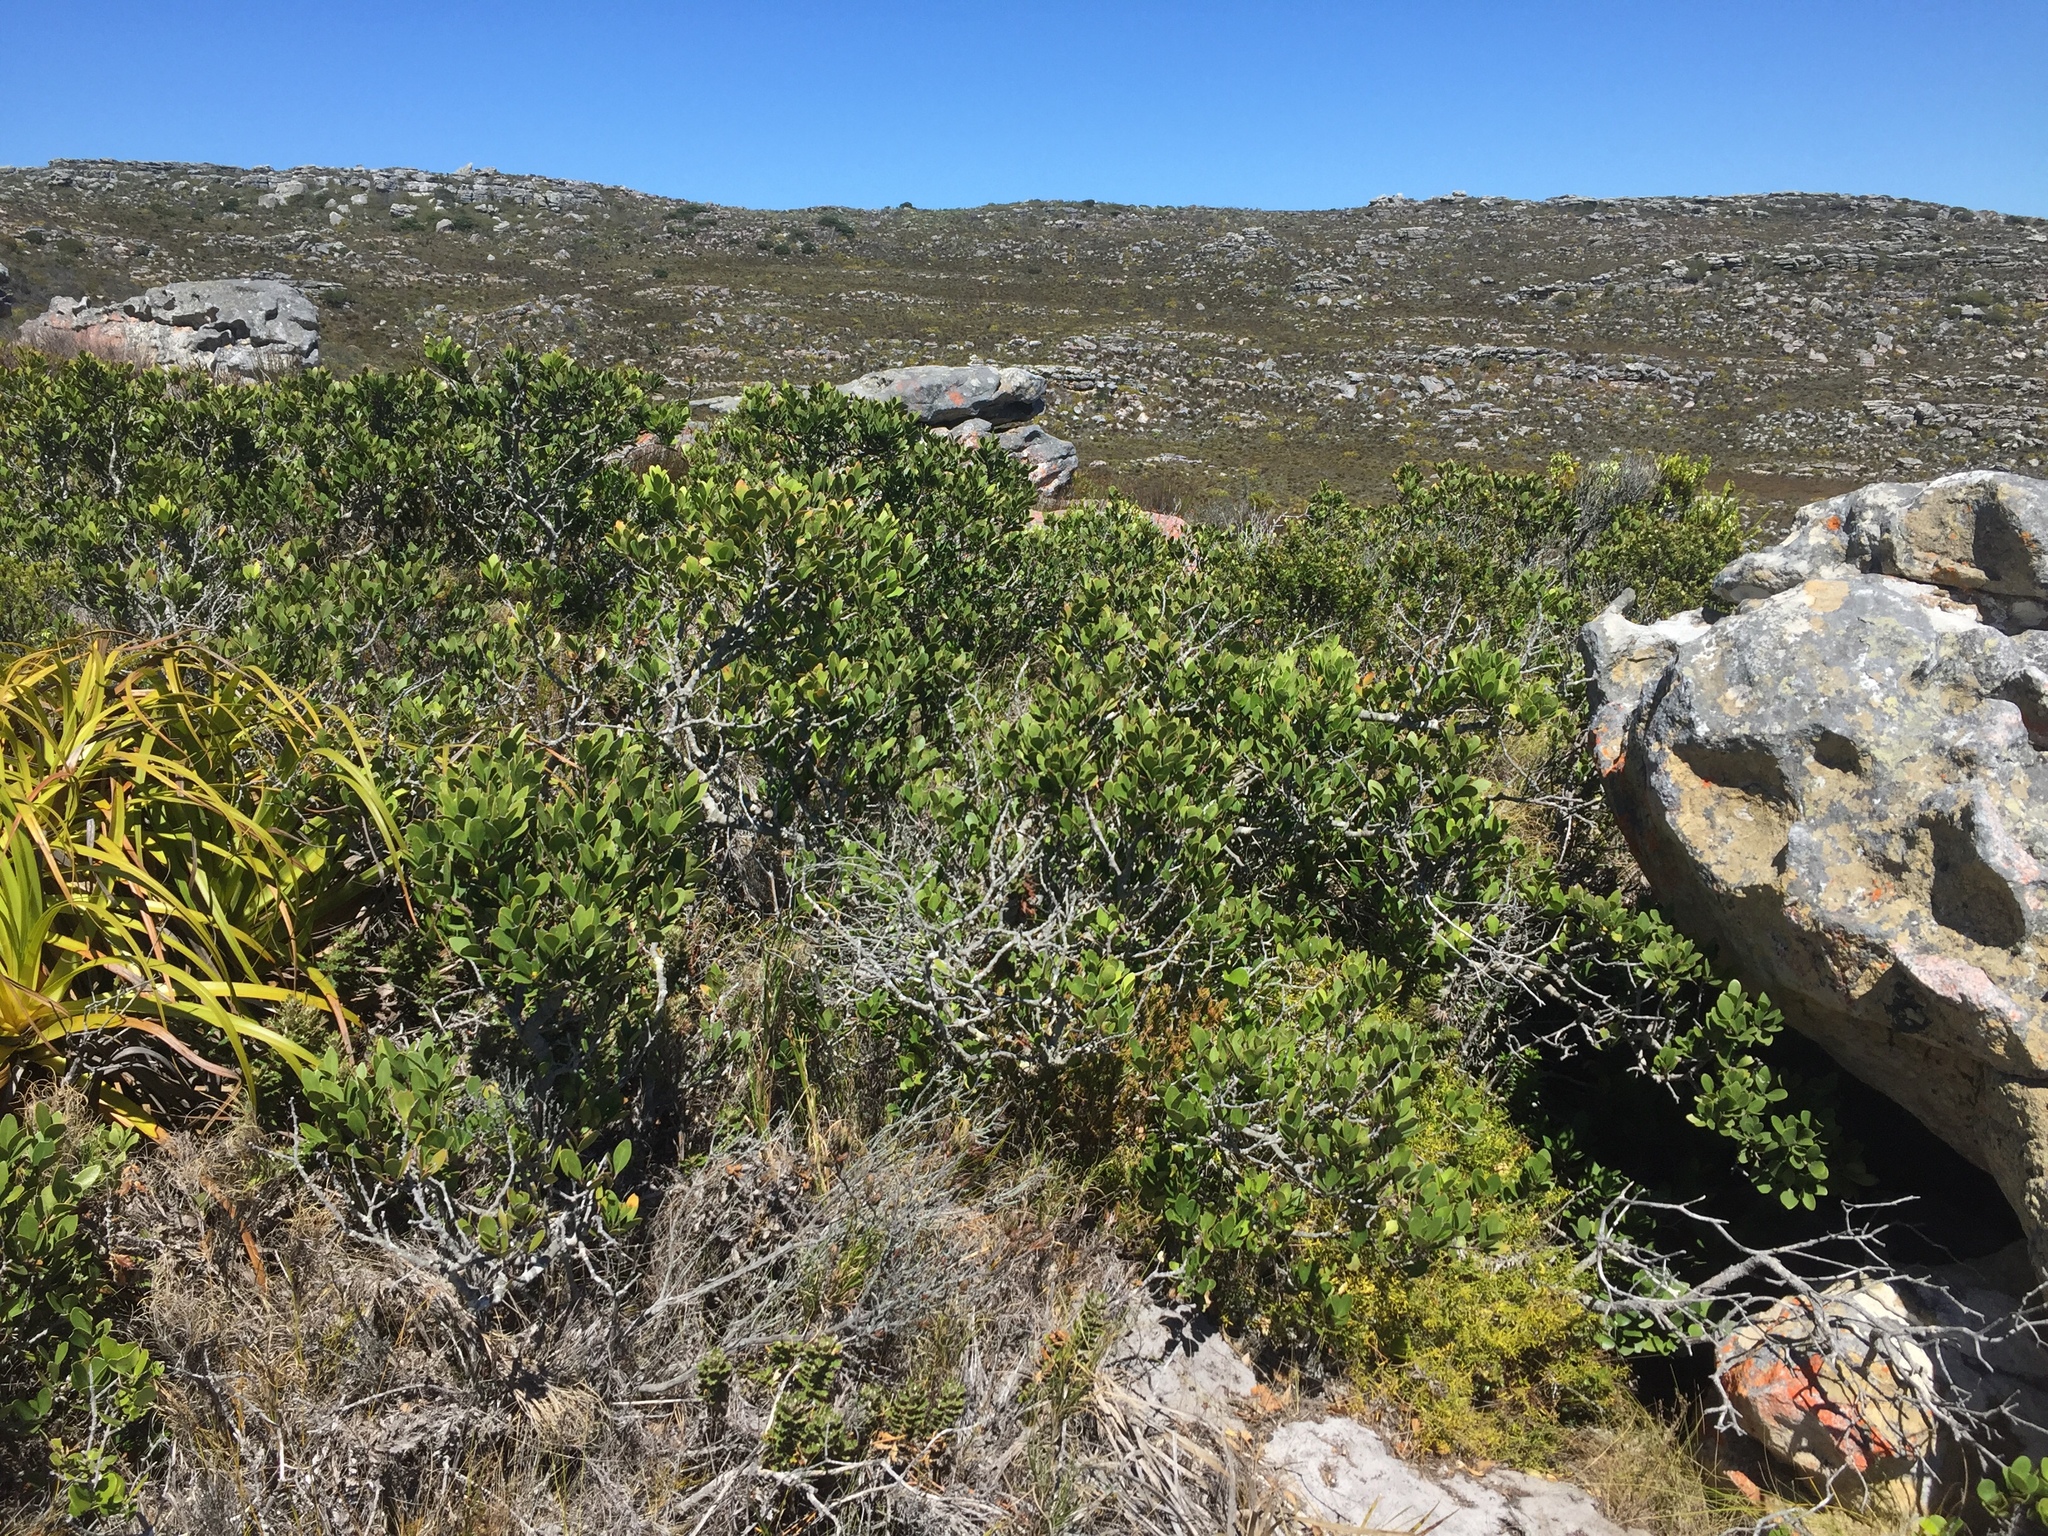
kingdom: Plantae
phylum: Tracheophyta
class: Magnoliopsida
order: Celastrales
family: Celastraceae
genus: Pterocelastrus
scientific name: Pterocelastrus tricuspidatus
